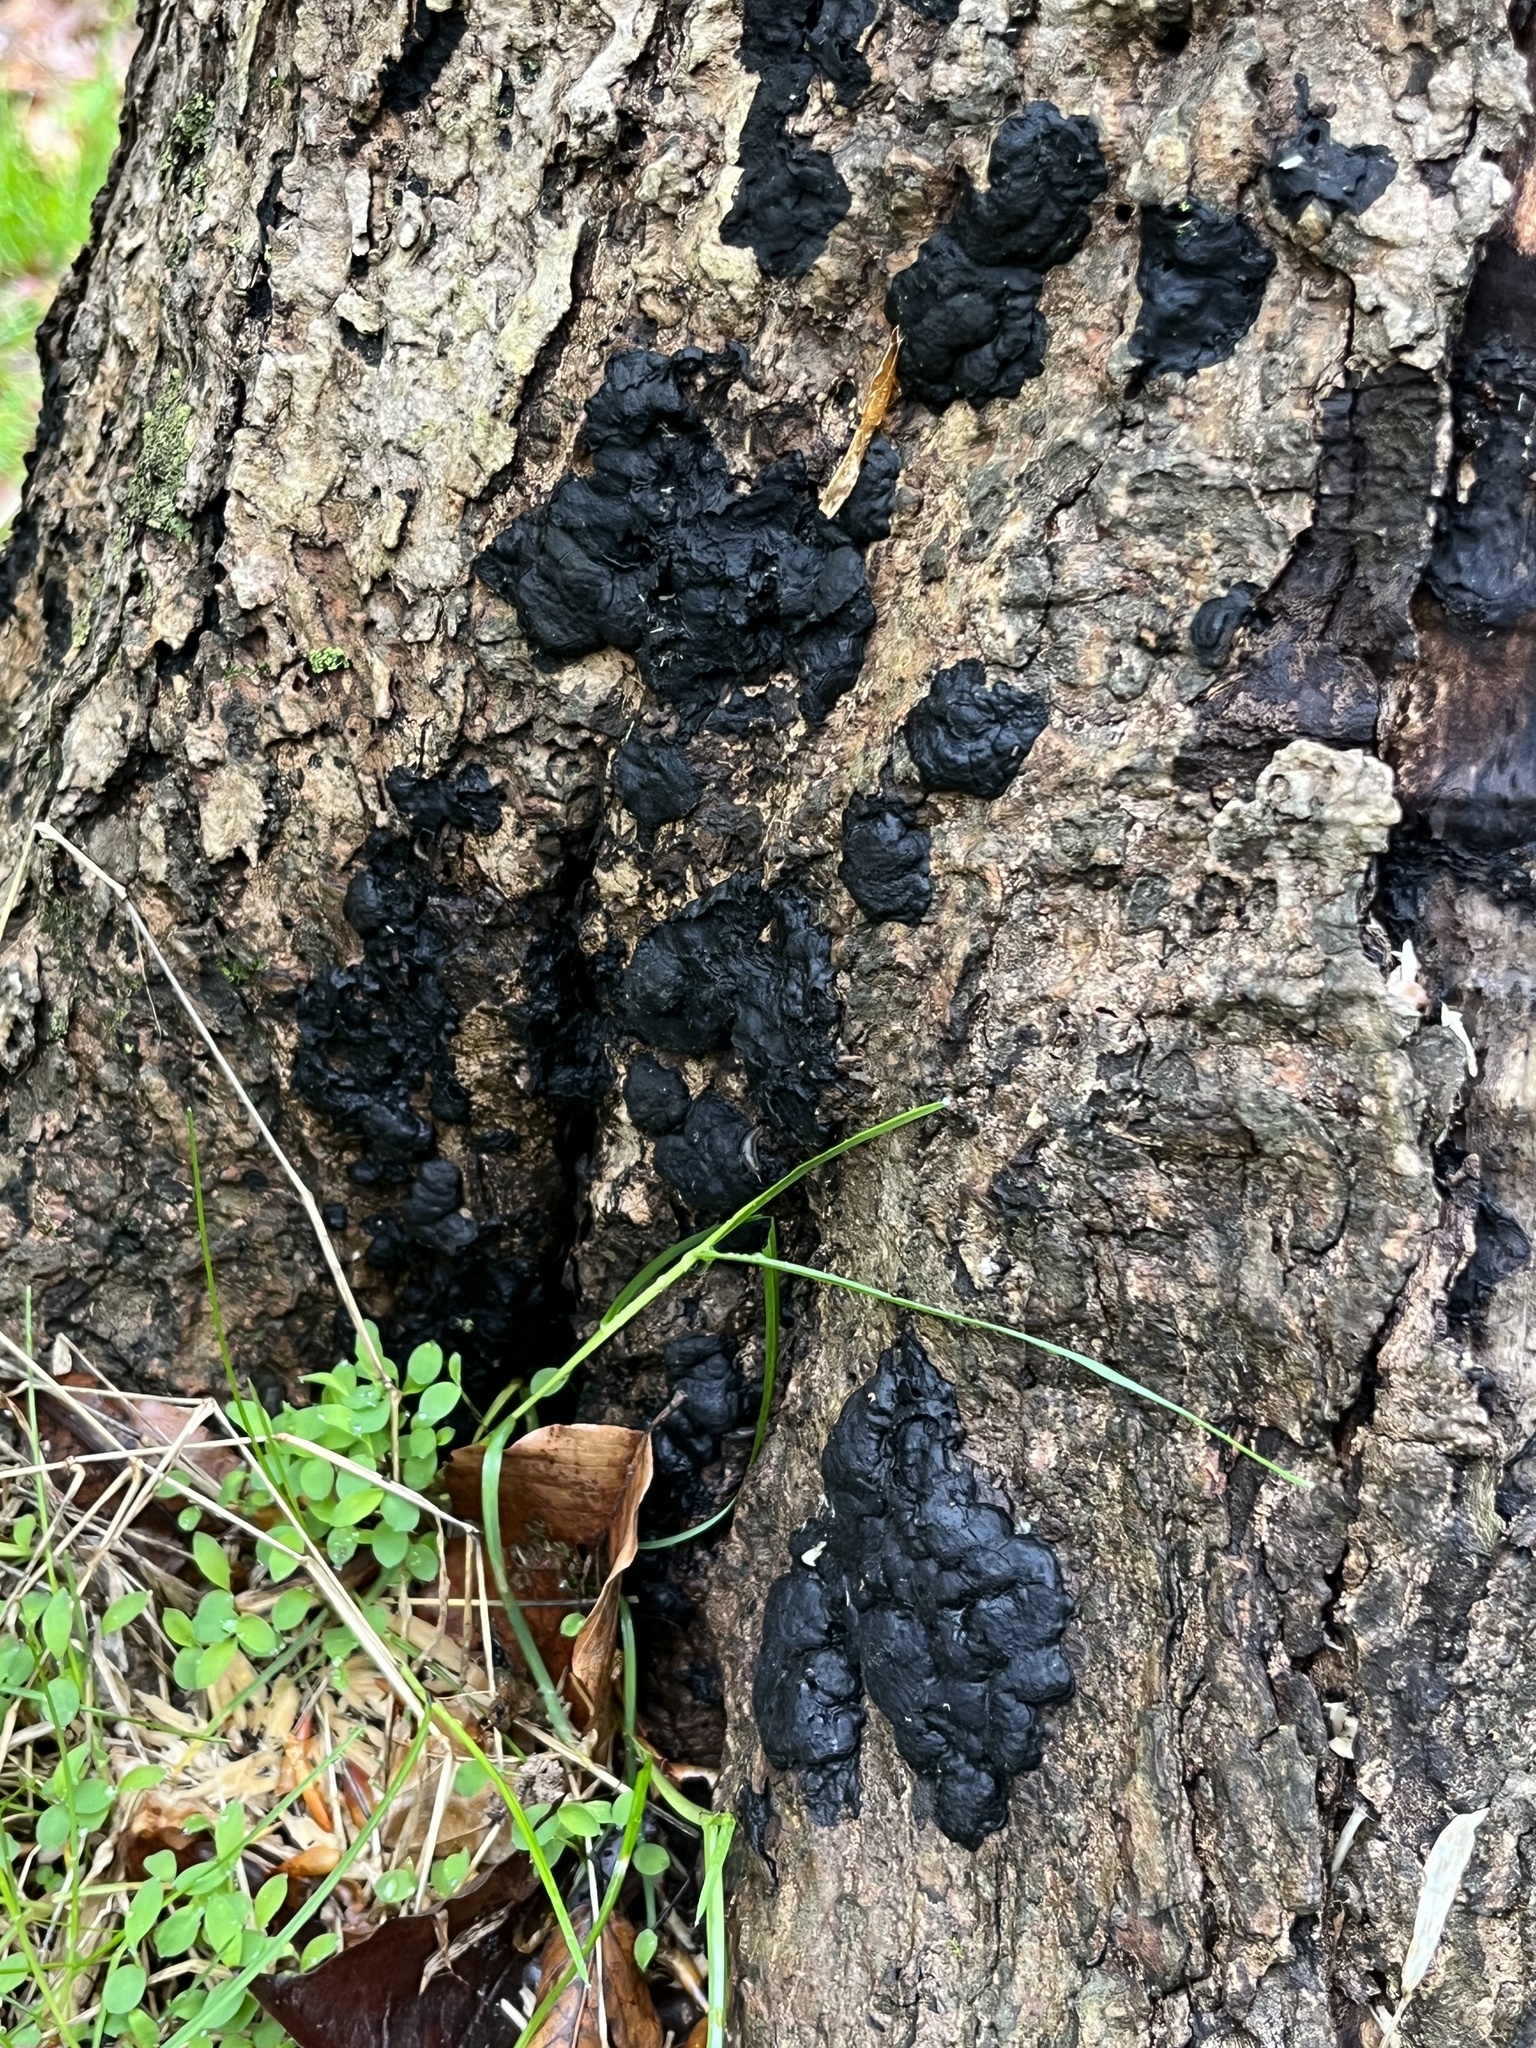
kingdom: Fungi
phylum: Ascomycota
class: Sordariomycetes
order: Xylariales
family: Xylariaceae
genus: Kretzschmaria
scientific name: Kretzschmaria deusta
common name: Brittle cinder
